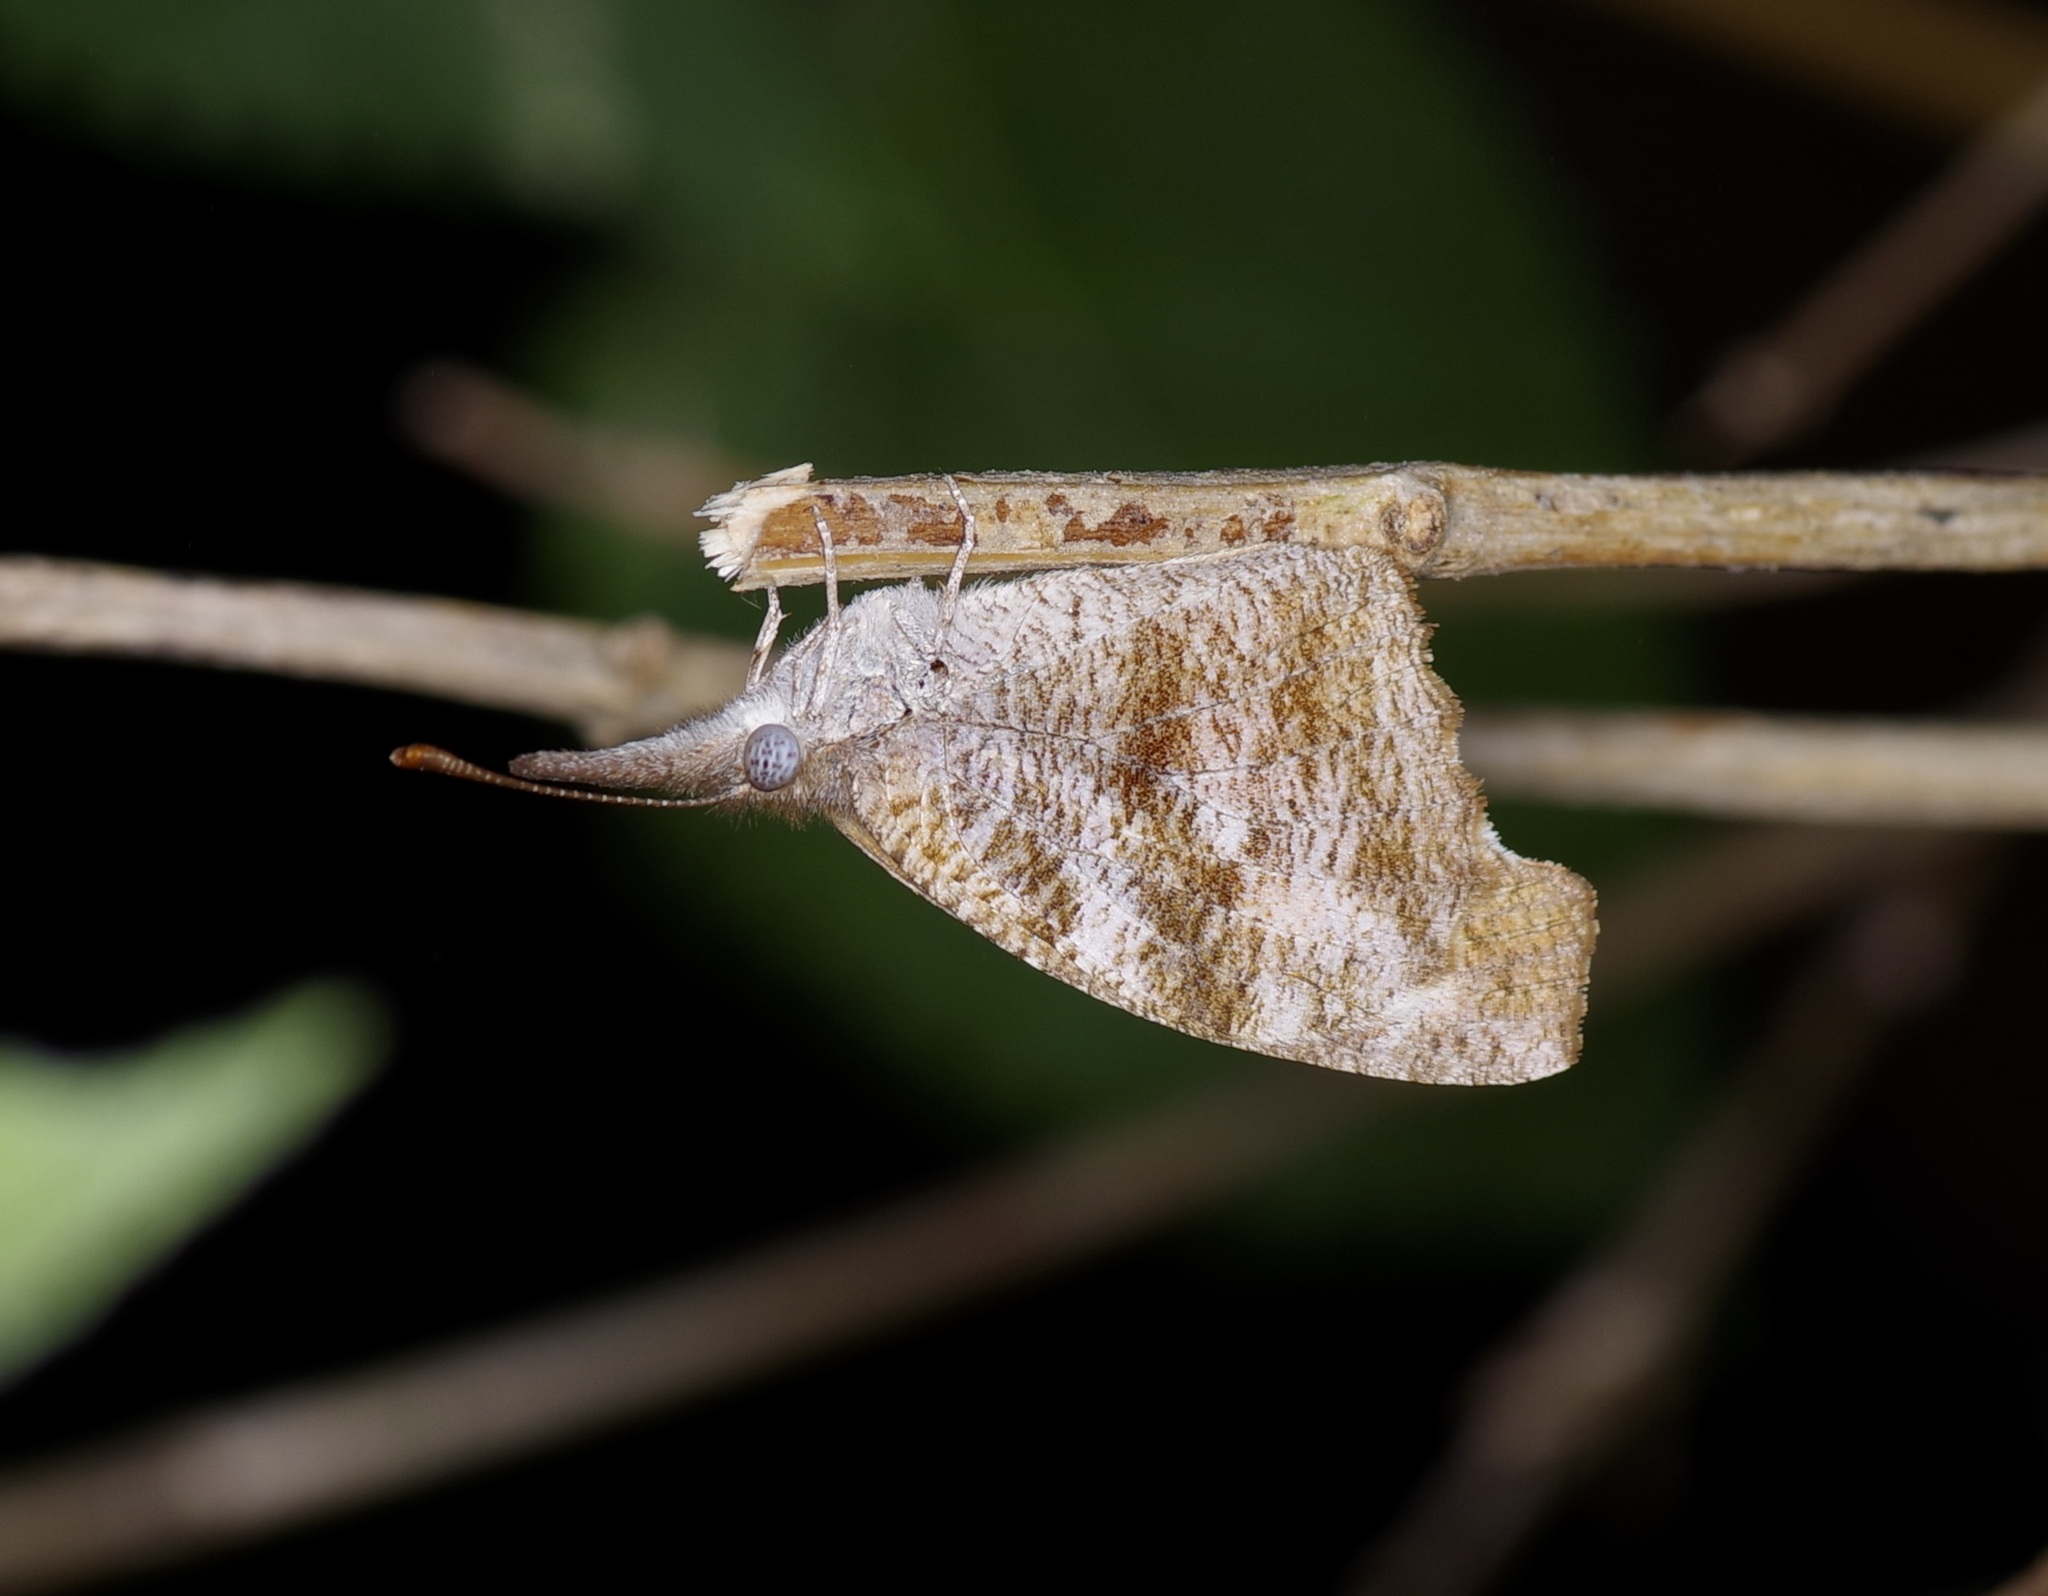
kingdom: Animalia
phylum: Arthropoda
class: Insecta
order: Lepidoptera
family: Nymphalidae
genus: Libytheana
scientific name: Libytheana carinenta
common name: American snout
